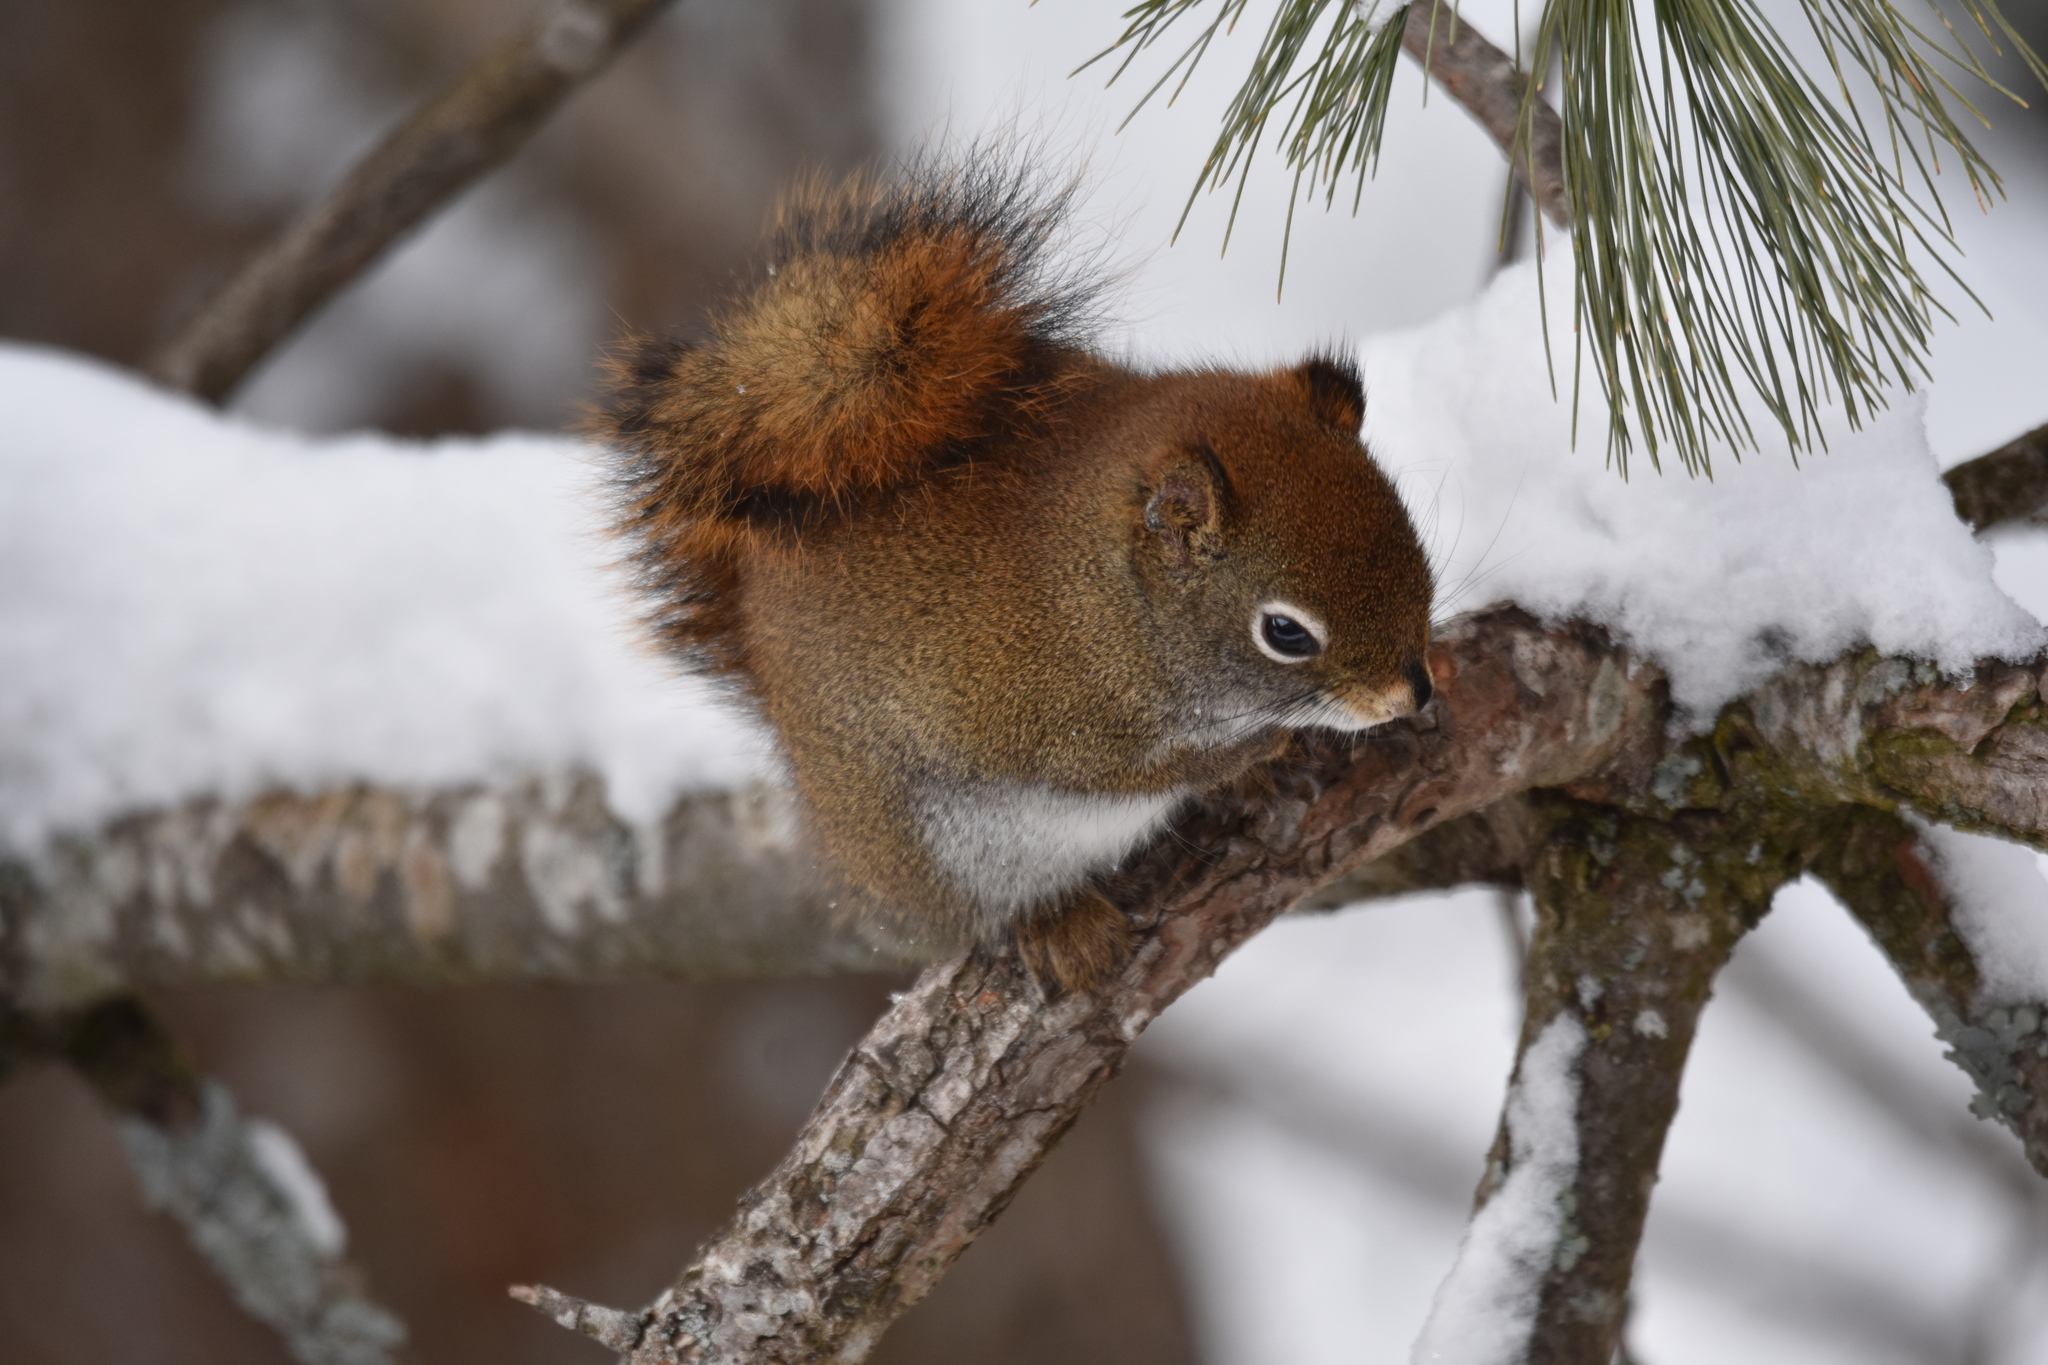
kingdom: Animalia
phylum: Chordata
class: Mammalia
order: Rodentia
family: Sciuridae
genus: Tamiasciurus
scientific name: Tamiasciurus hudsonicus
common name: Red squirrel
